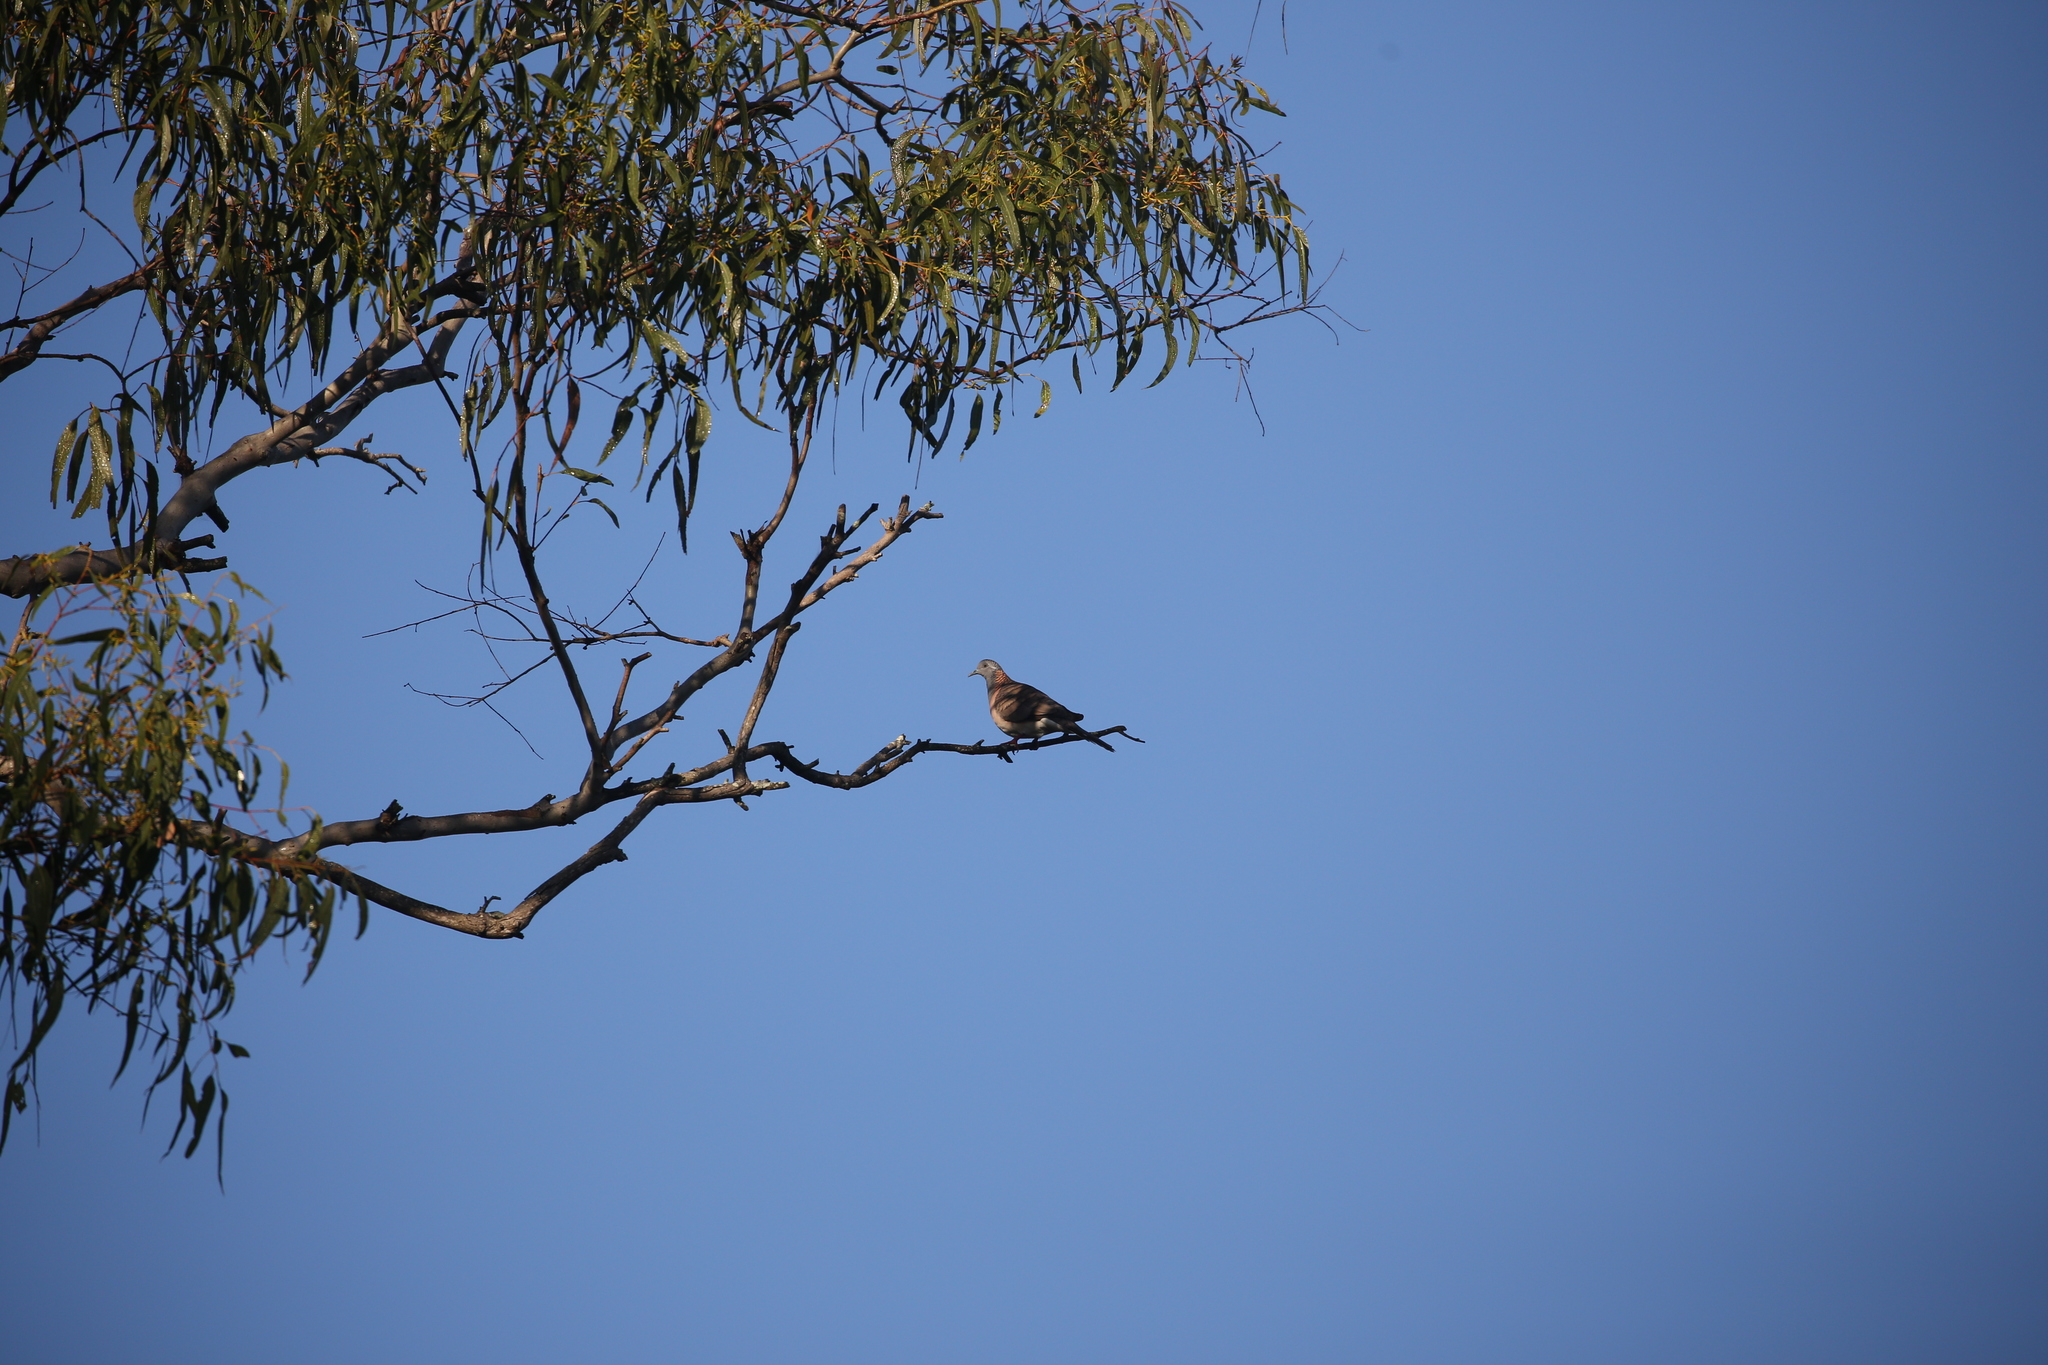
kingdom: Animalia
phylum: Chordata
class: Aves
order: Columbiformes
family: Columbidae
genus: Geopelia
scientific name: Geopelia humeralis
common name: Bar-shouldered dove
